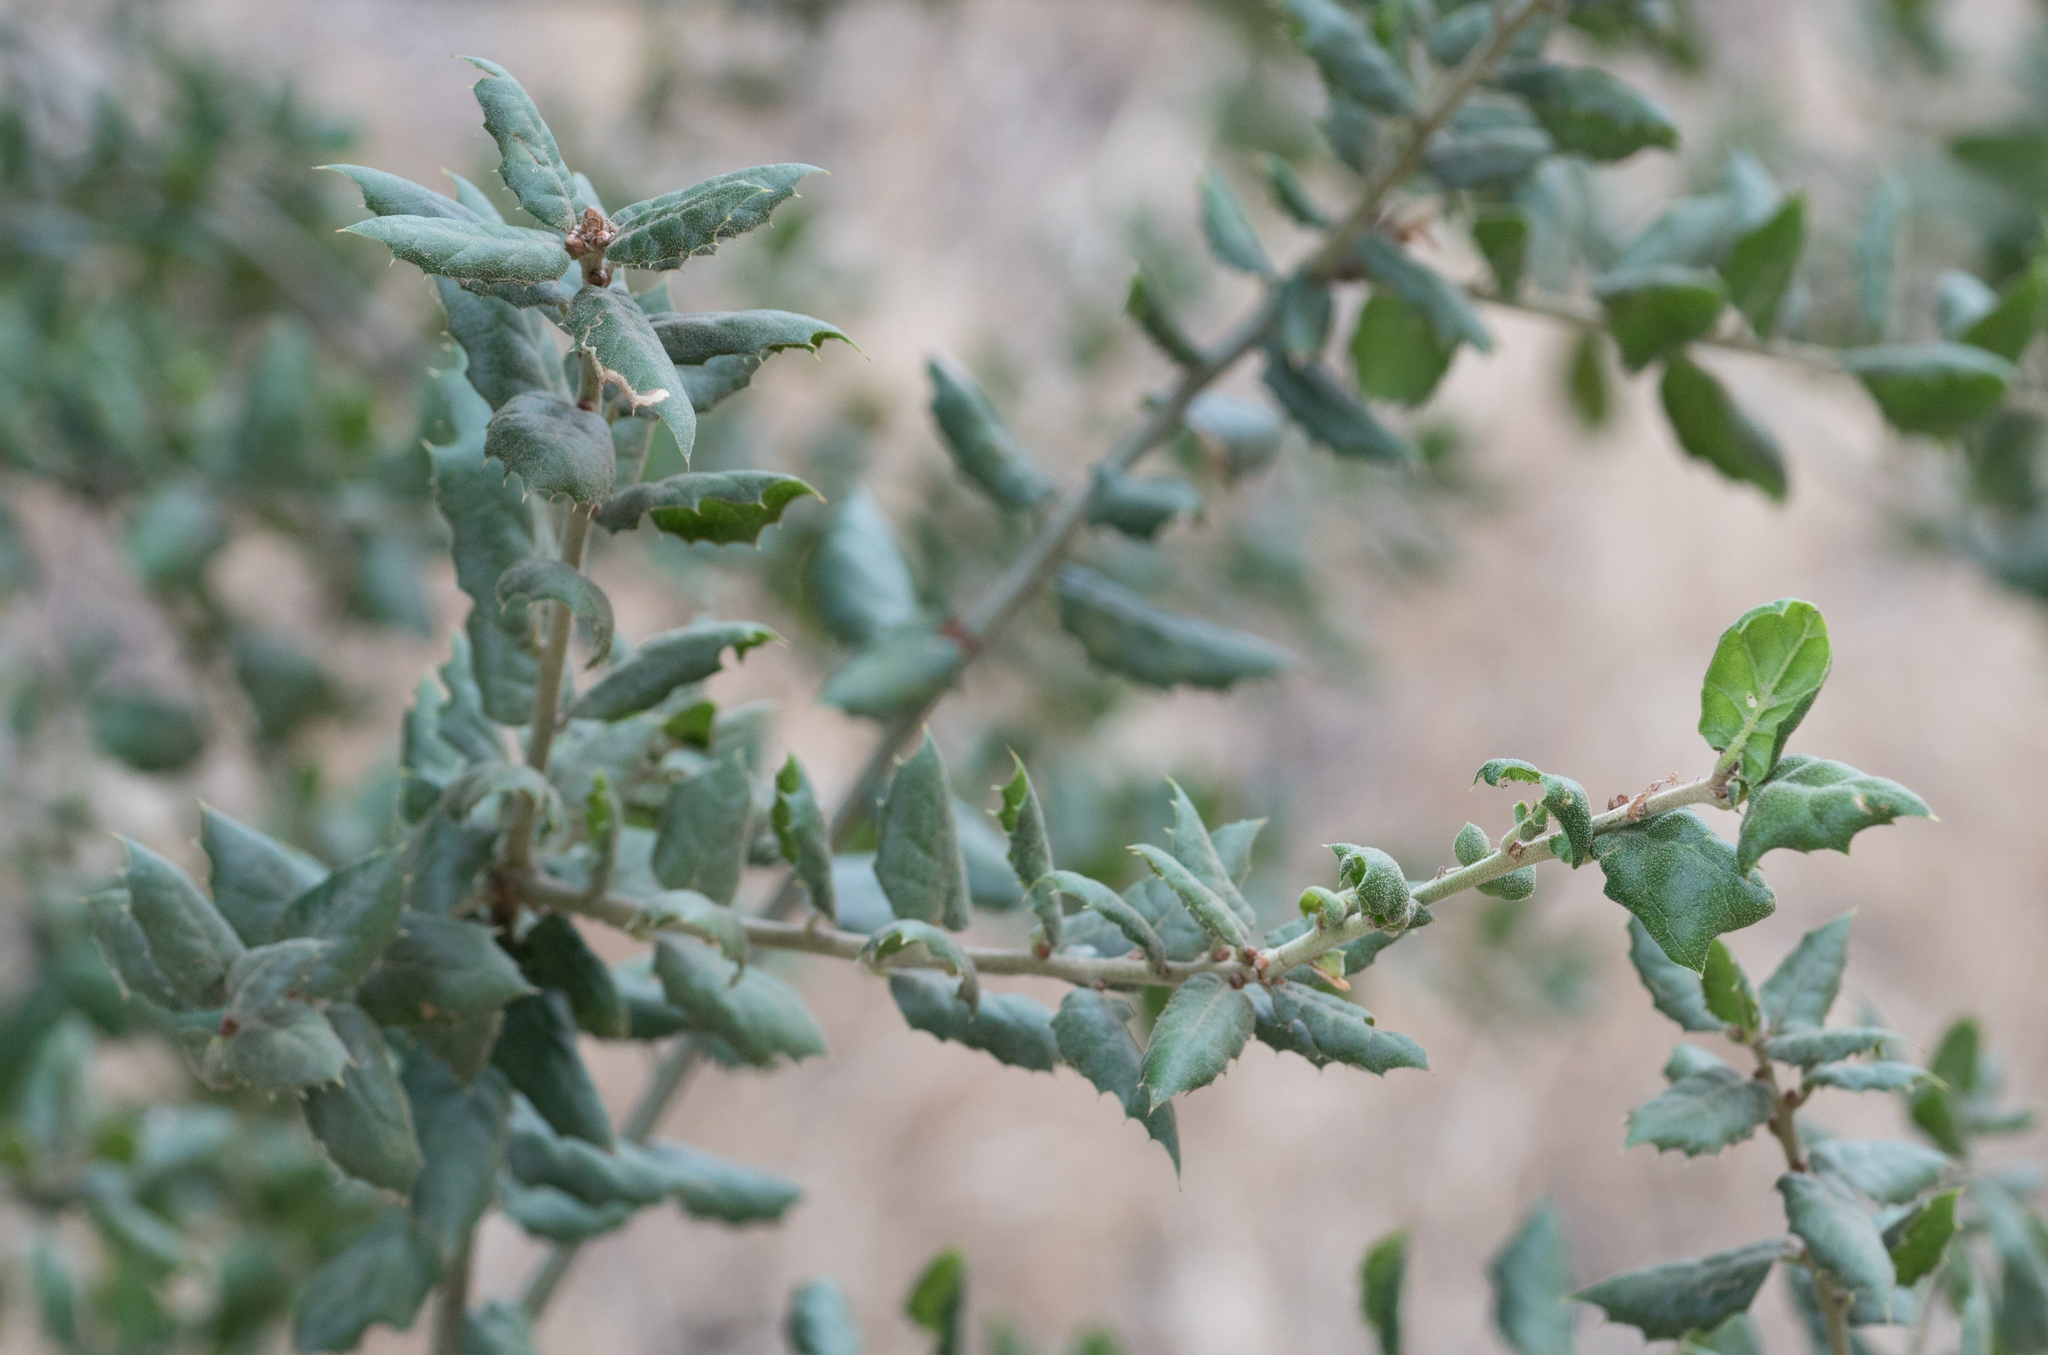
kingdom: Plantae
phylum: Tracheophyta
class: Magnoliopsida
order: Fagales
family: Fagaceae
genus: Quercus
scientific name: Quercus agrifolia
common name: California live oak
